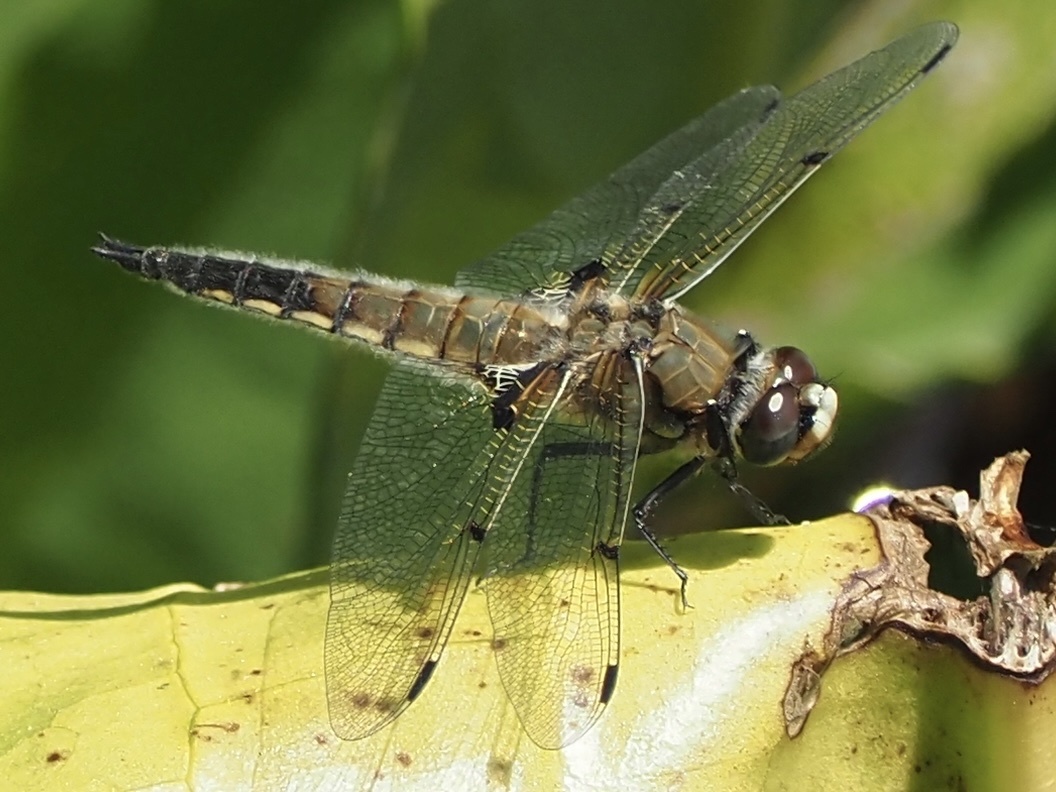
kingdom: Animalia
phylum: Arthropoda
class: Insecta
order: Odonata
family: Libellulidae
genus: Libellula
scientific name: Libellula quadrimaculata
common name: Four-spotted chaser
